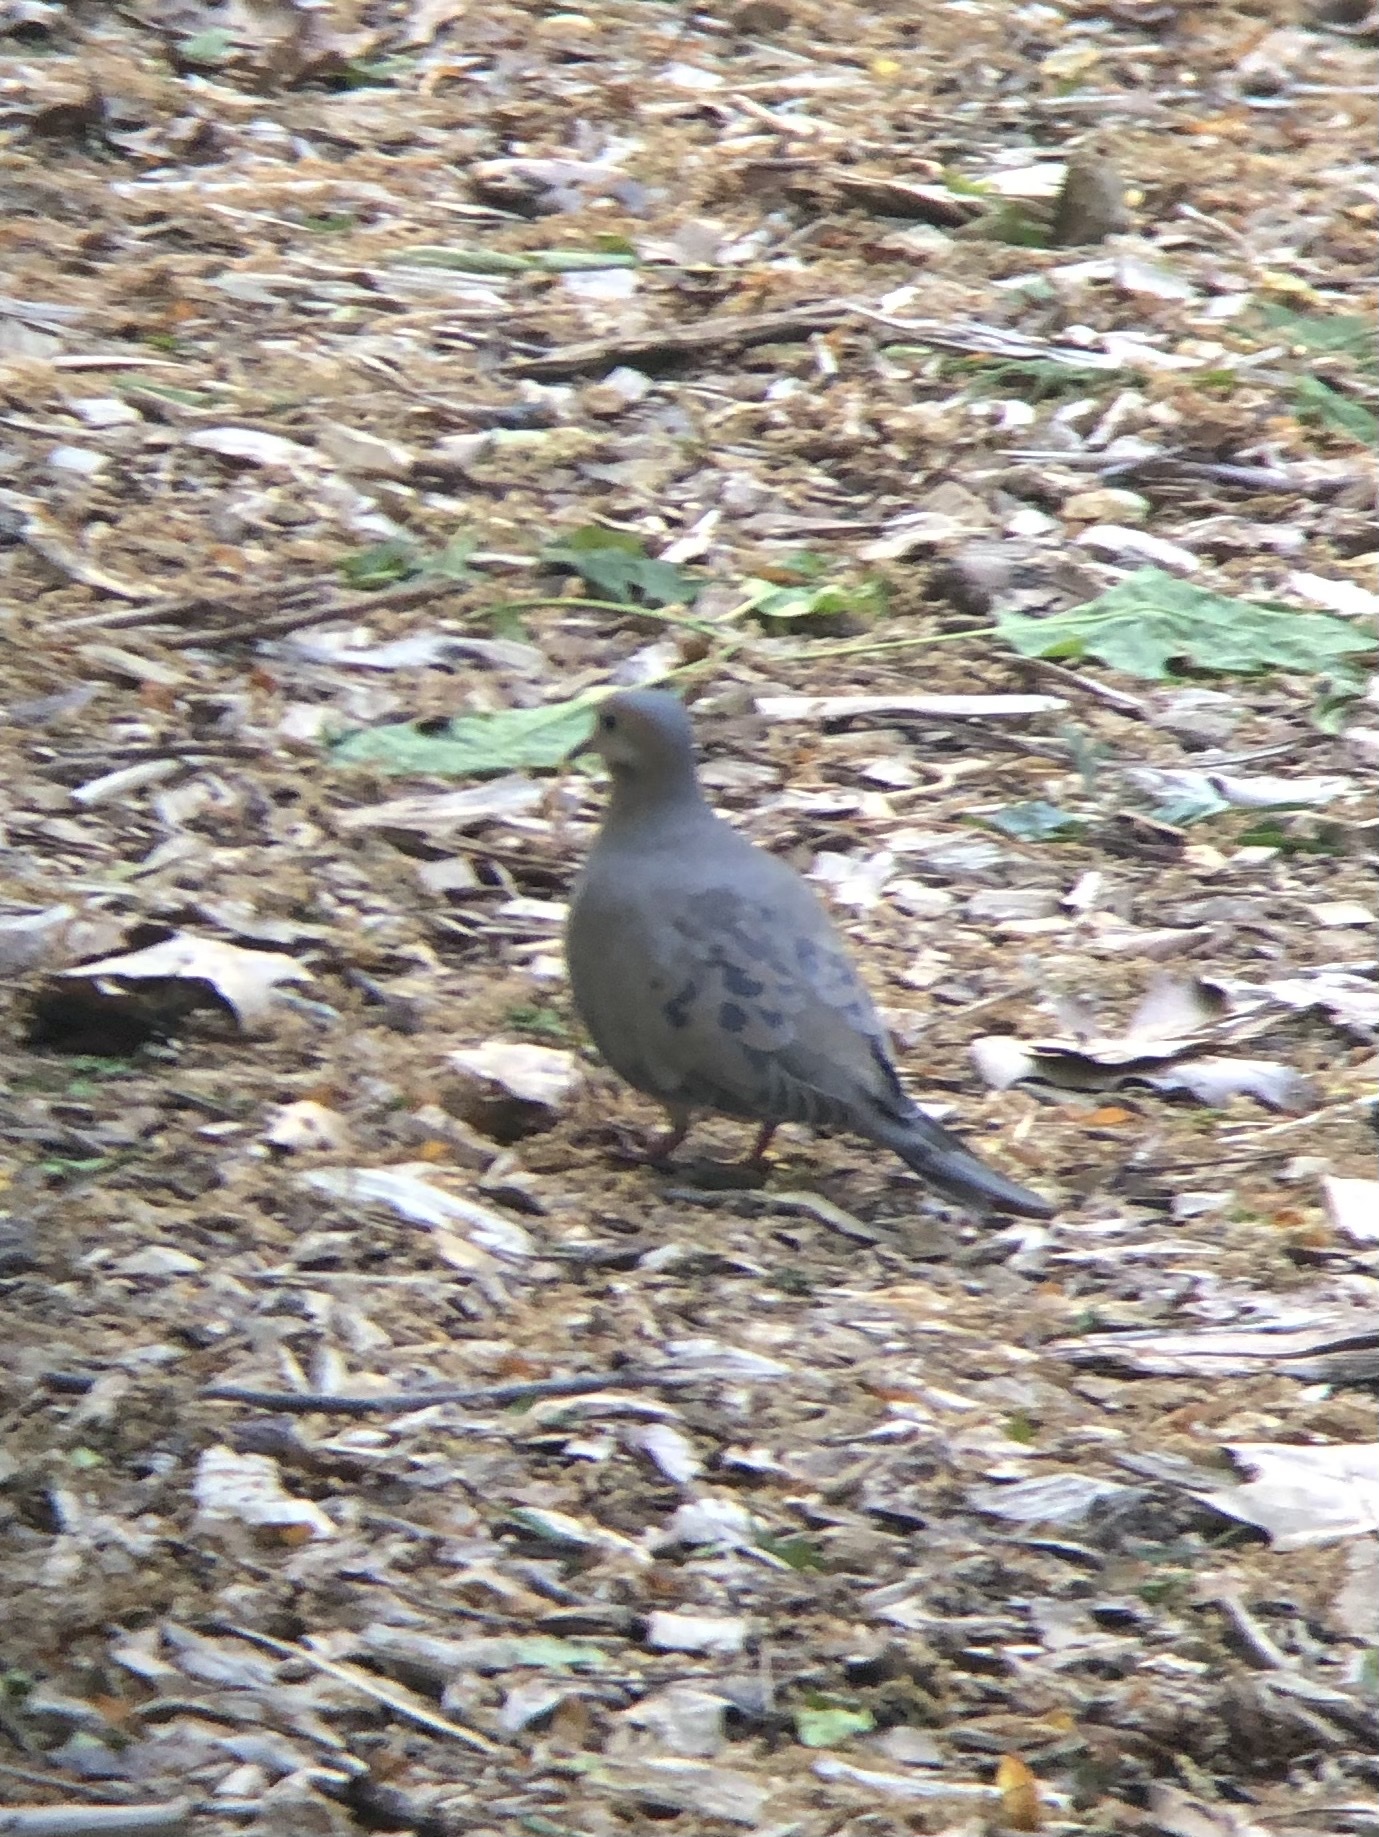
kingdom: Animalia
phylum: Chordata
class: Aves
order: Columbiformes
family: Columbidae
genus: Zenaida
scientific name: Zenaida macroura
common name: Mourning dove
